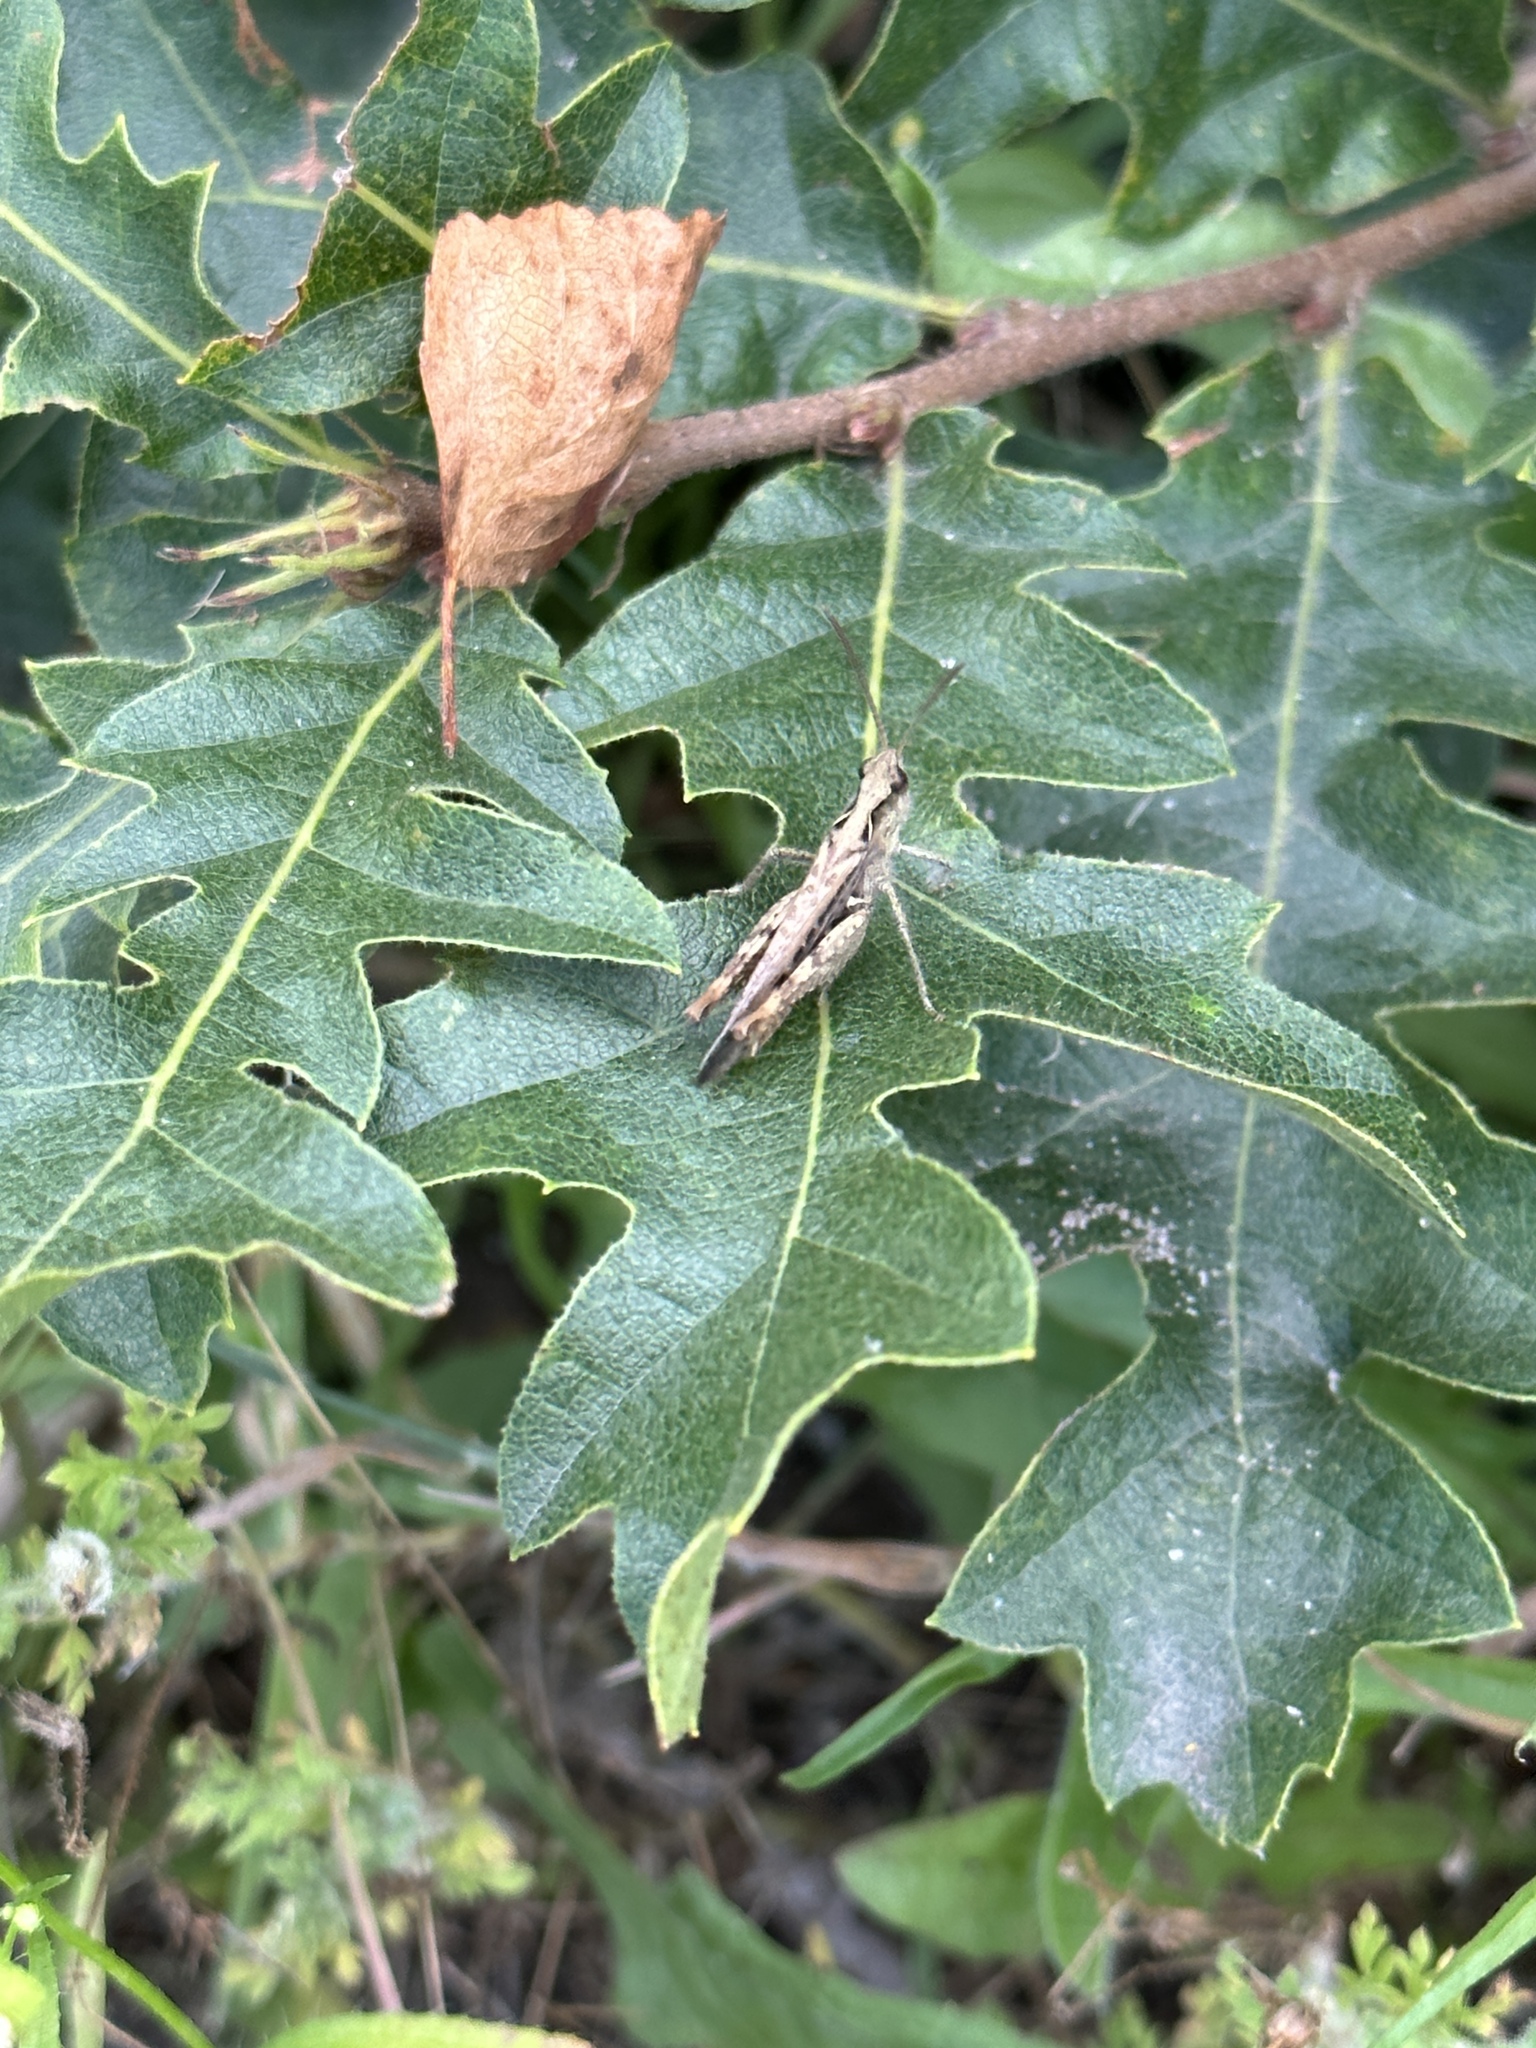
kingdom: Animalia
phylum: Arthropoda
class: Insecta
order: Orthoptera
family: Acrididae
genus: Chorthippus
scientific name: Chorthippus brunneus
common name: Field grasshopper
